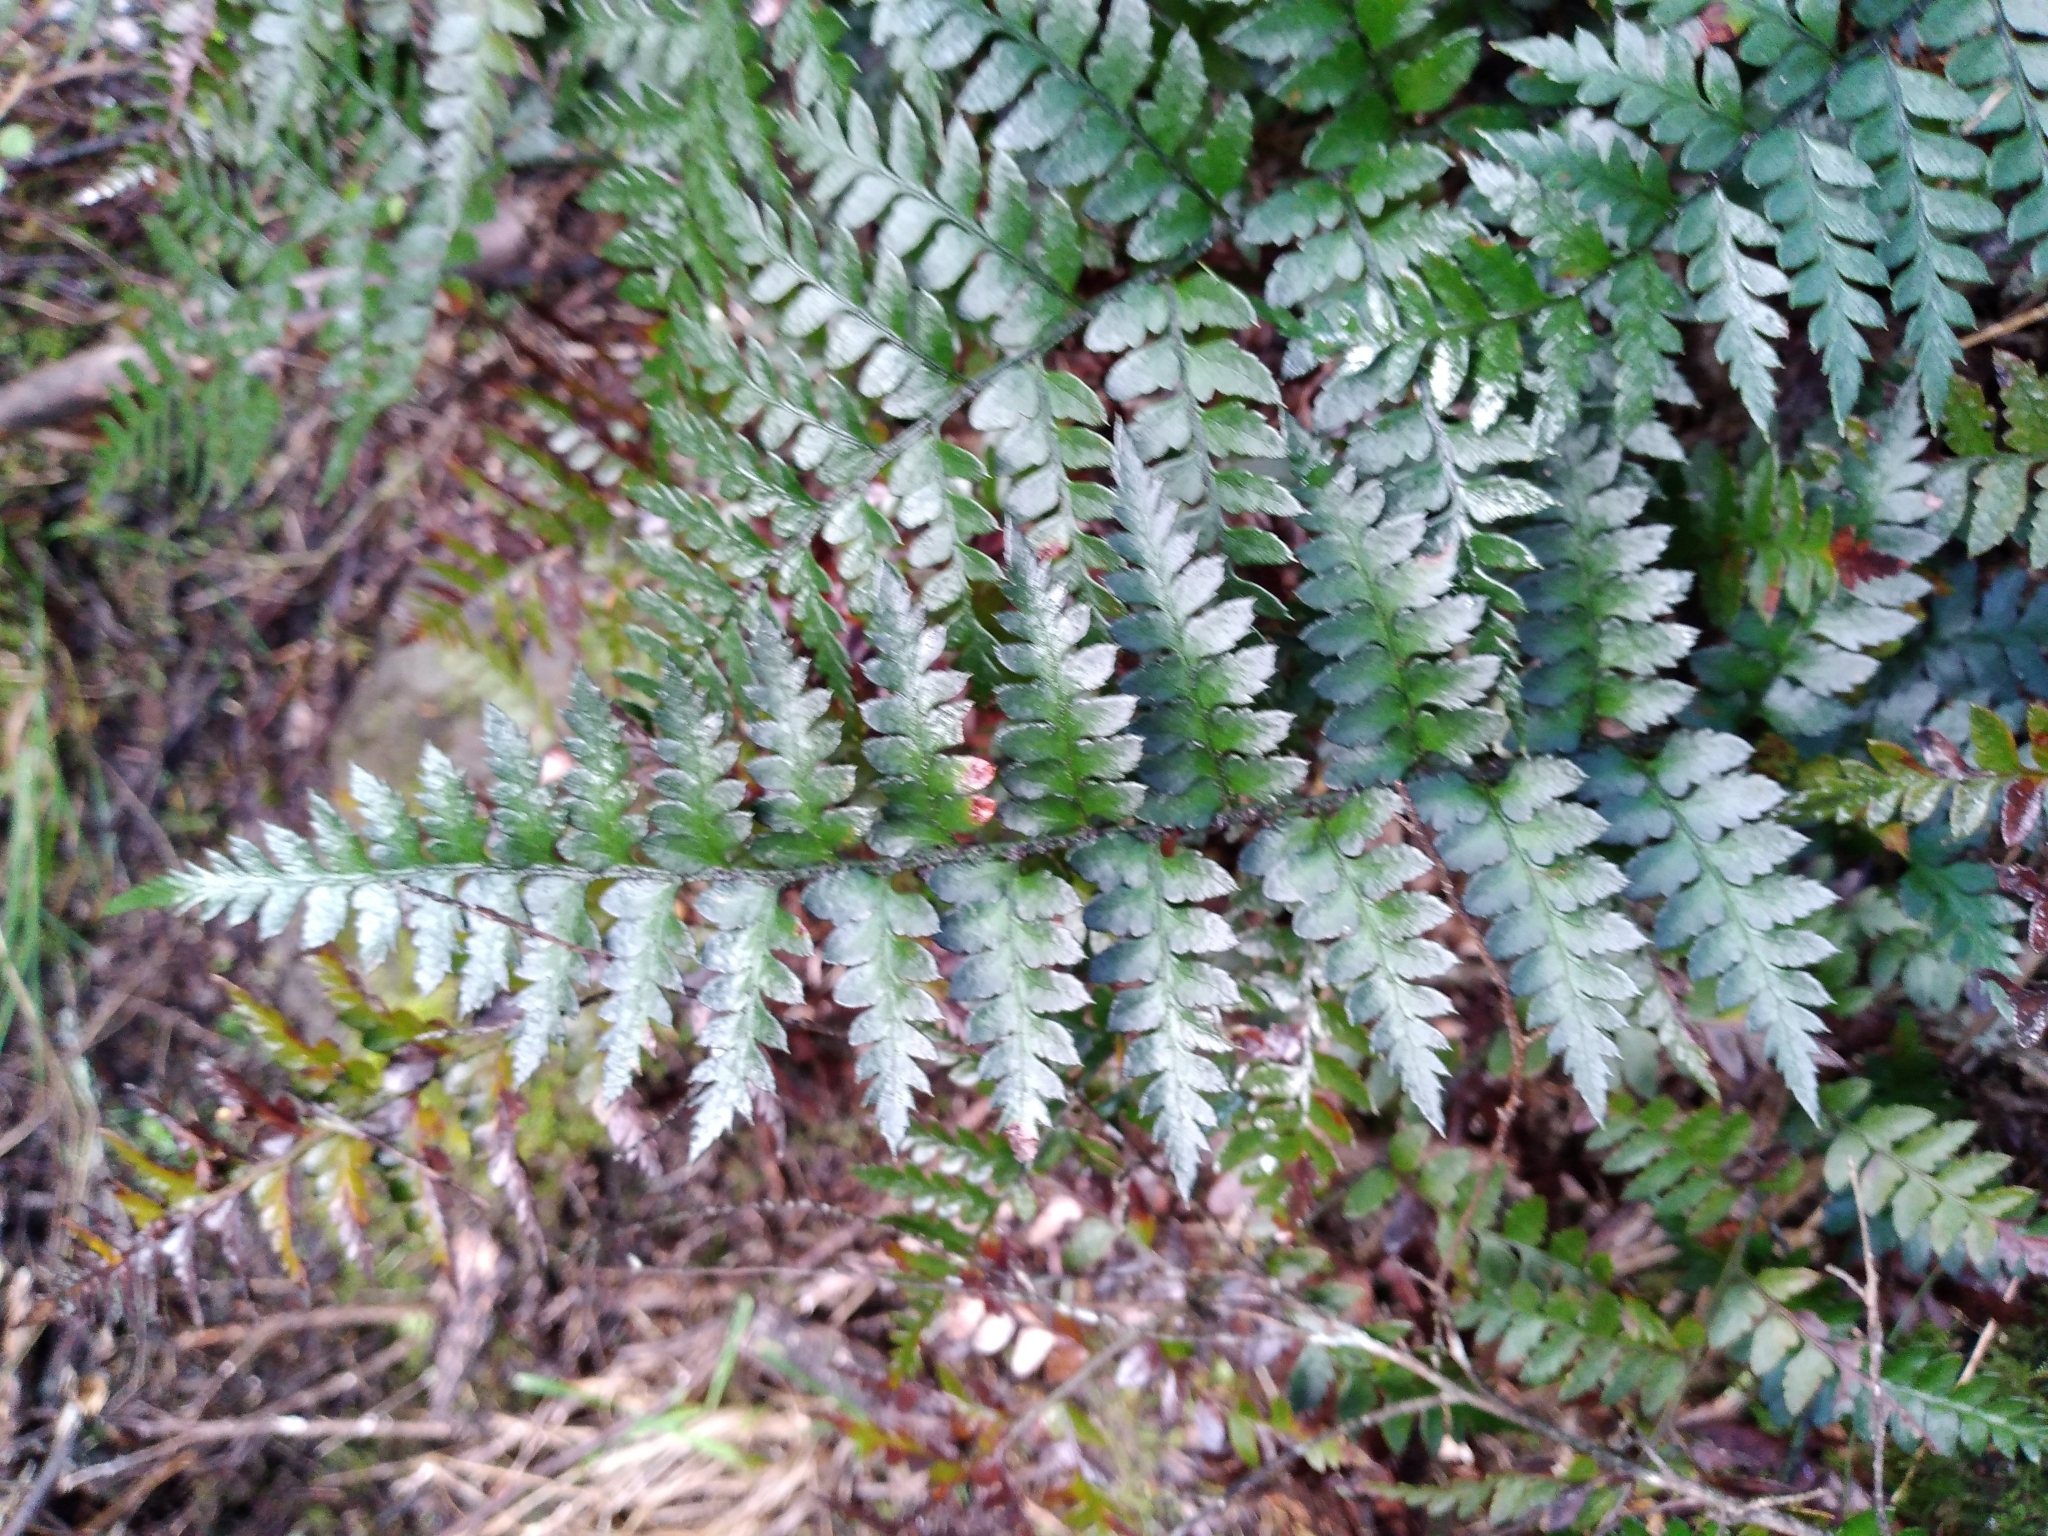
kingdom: Plantae
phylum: Tracheophyta
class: Polypodiopsida
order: Polypodiales
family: Dryopteridaceae
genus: Polystichum
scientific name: Polystichum oculatum
